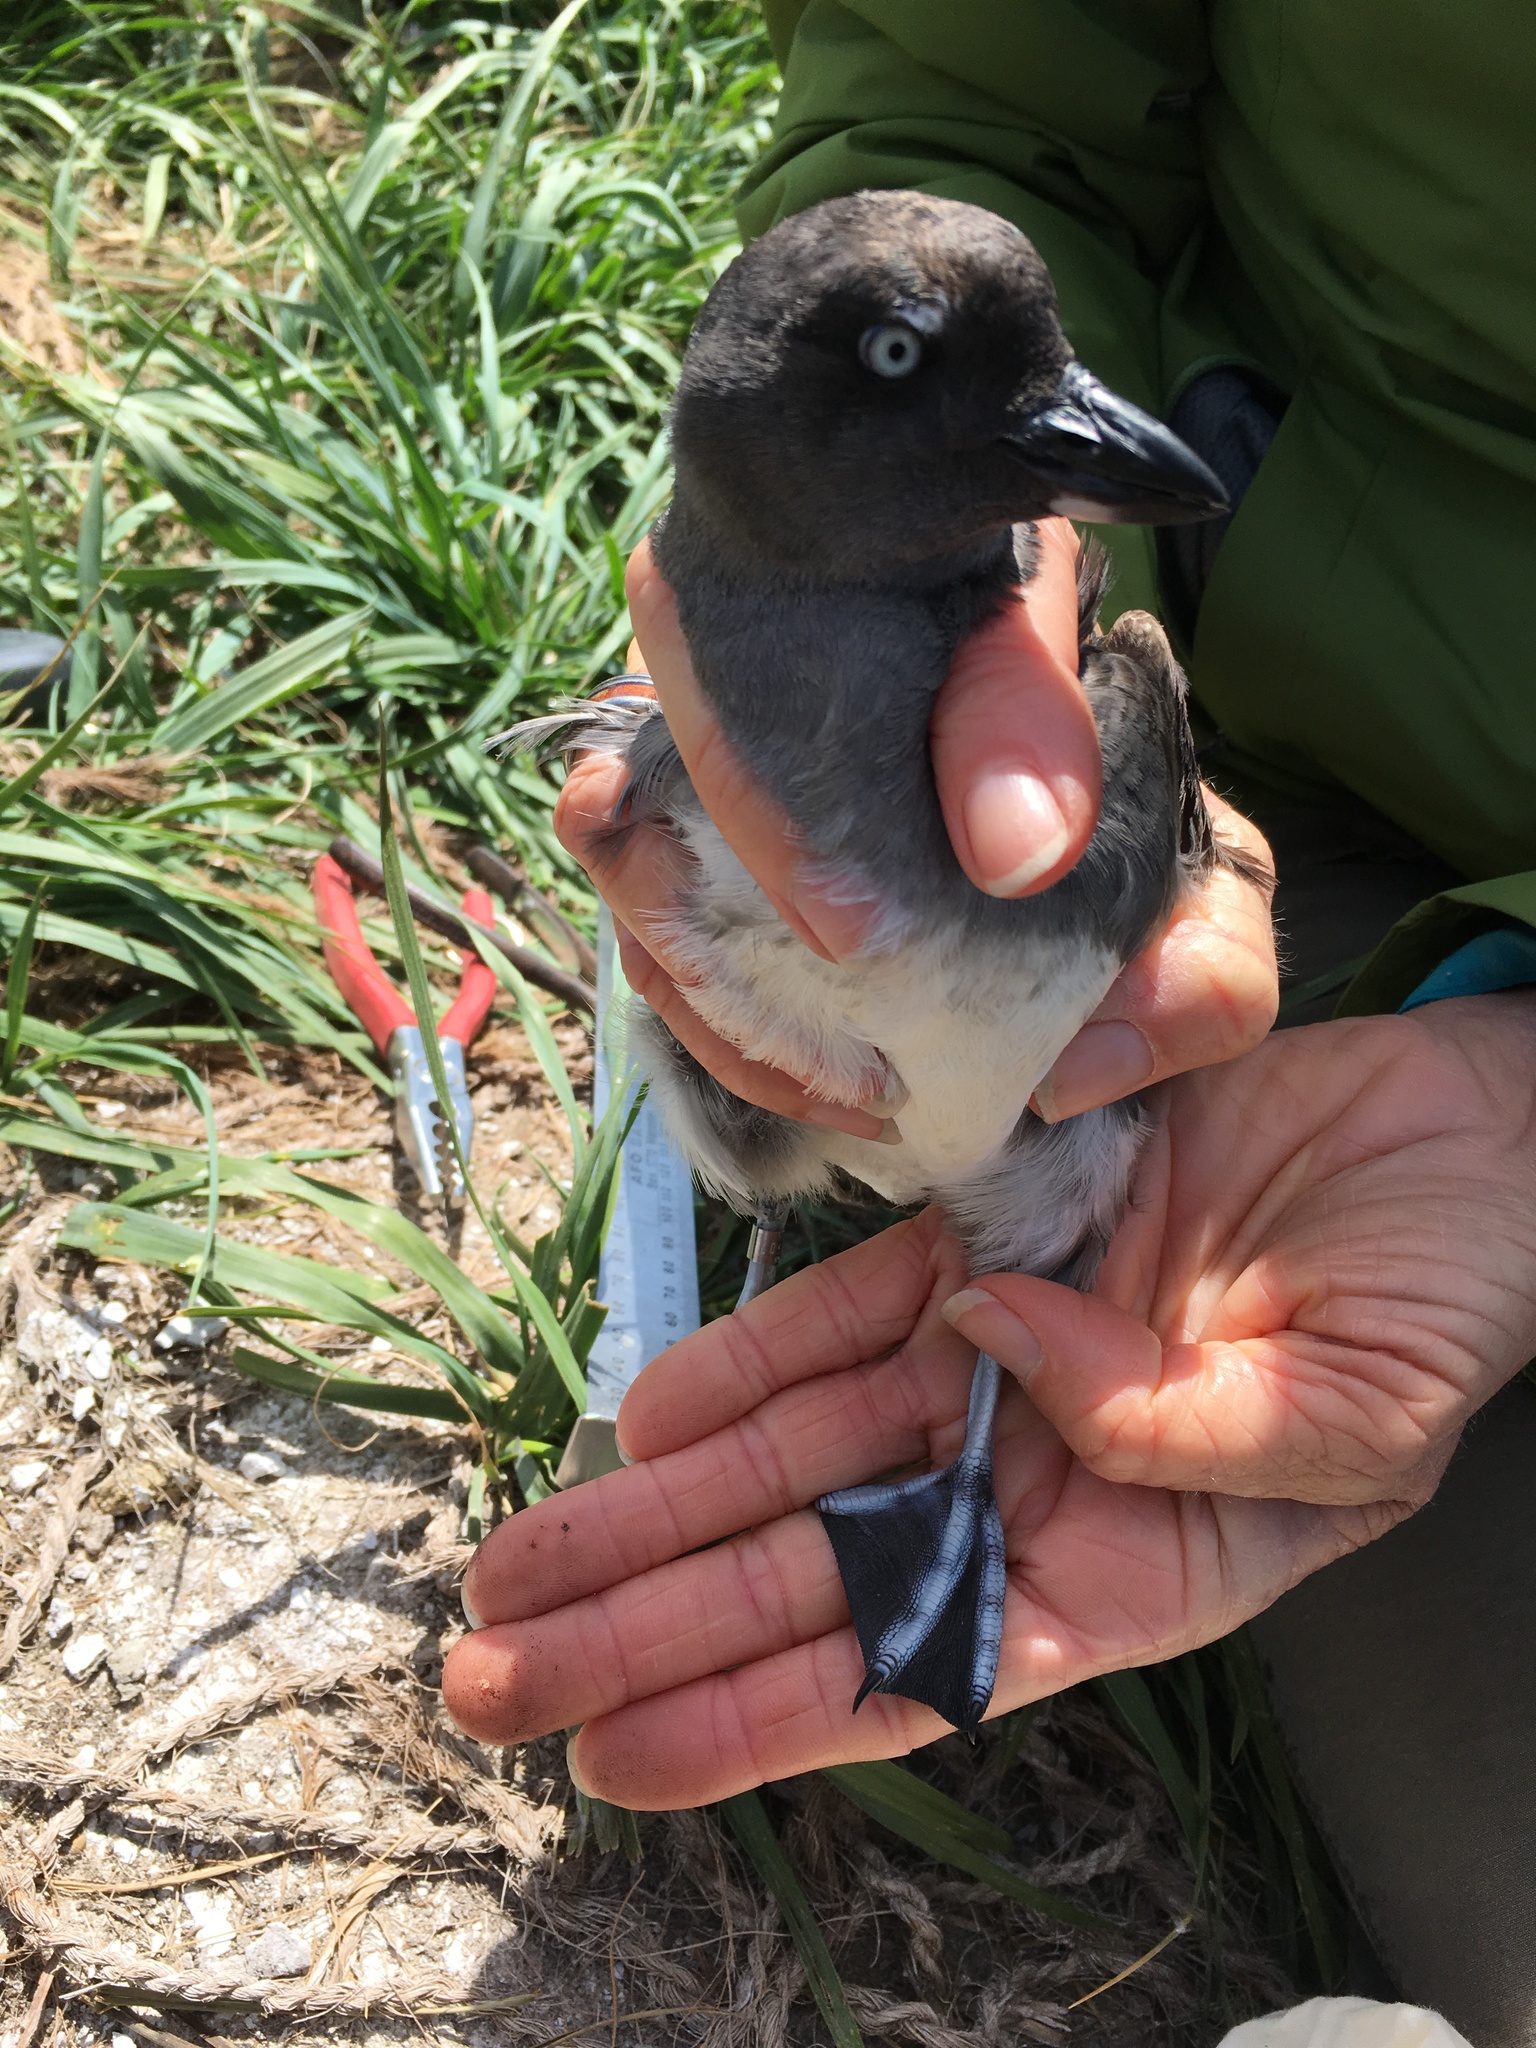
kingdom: Animalia
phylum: Chordata
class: Aves
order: Charadriiformes
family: Alcidae
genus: Ptychoramphus
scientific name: Ptychoramphus aleuticus
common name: Cassin's auklet
